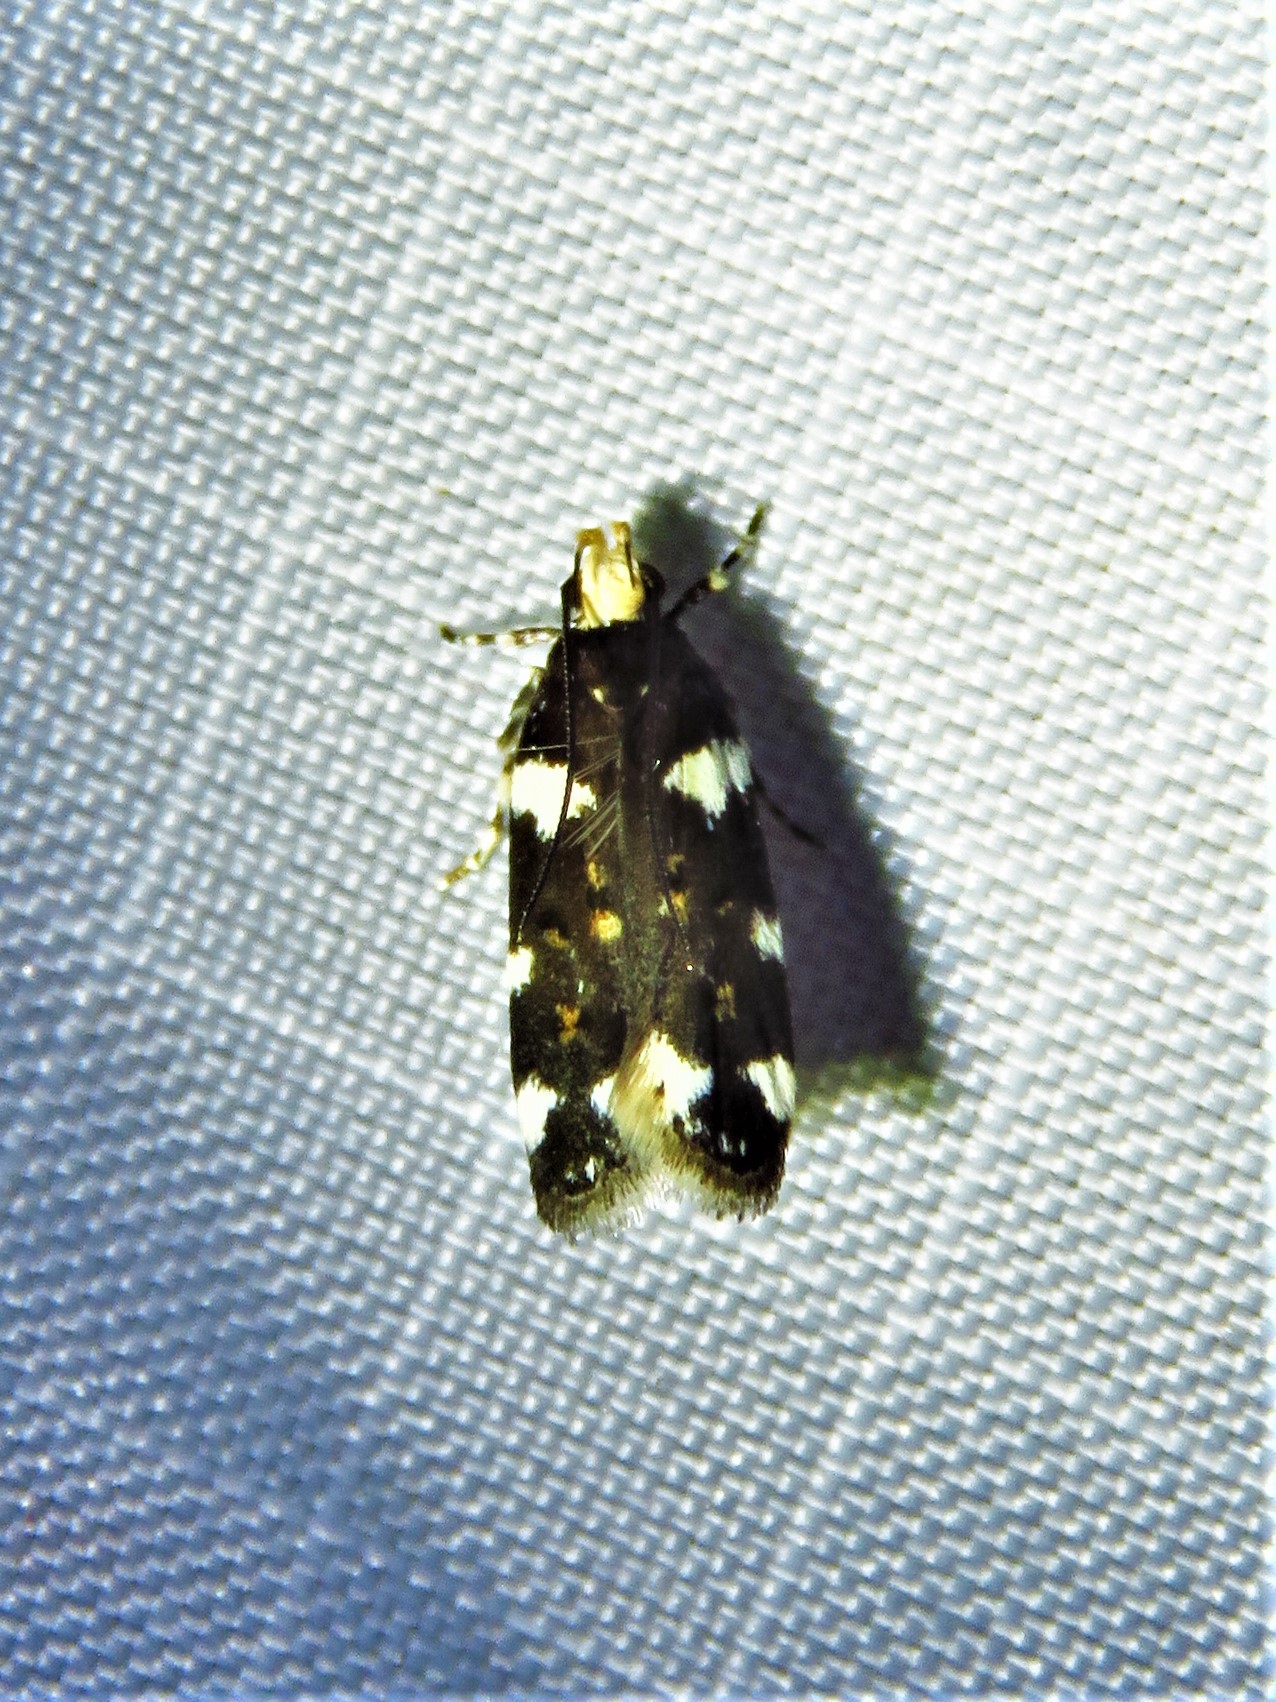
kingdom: Animalia
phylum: Arthropoda
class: Insecta
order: Lepidoptera
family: Gelechiidae
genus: Fascista
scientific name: Fascista cercerisella
